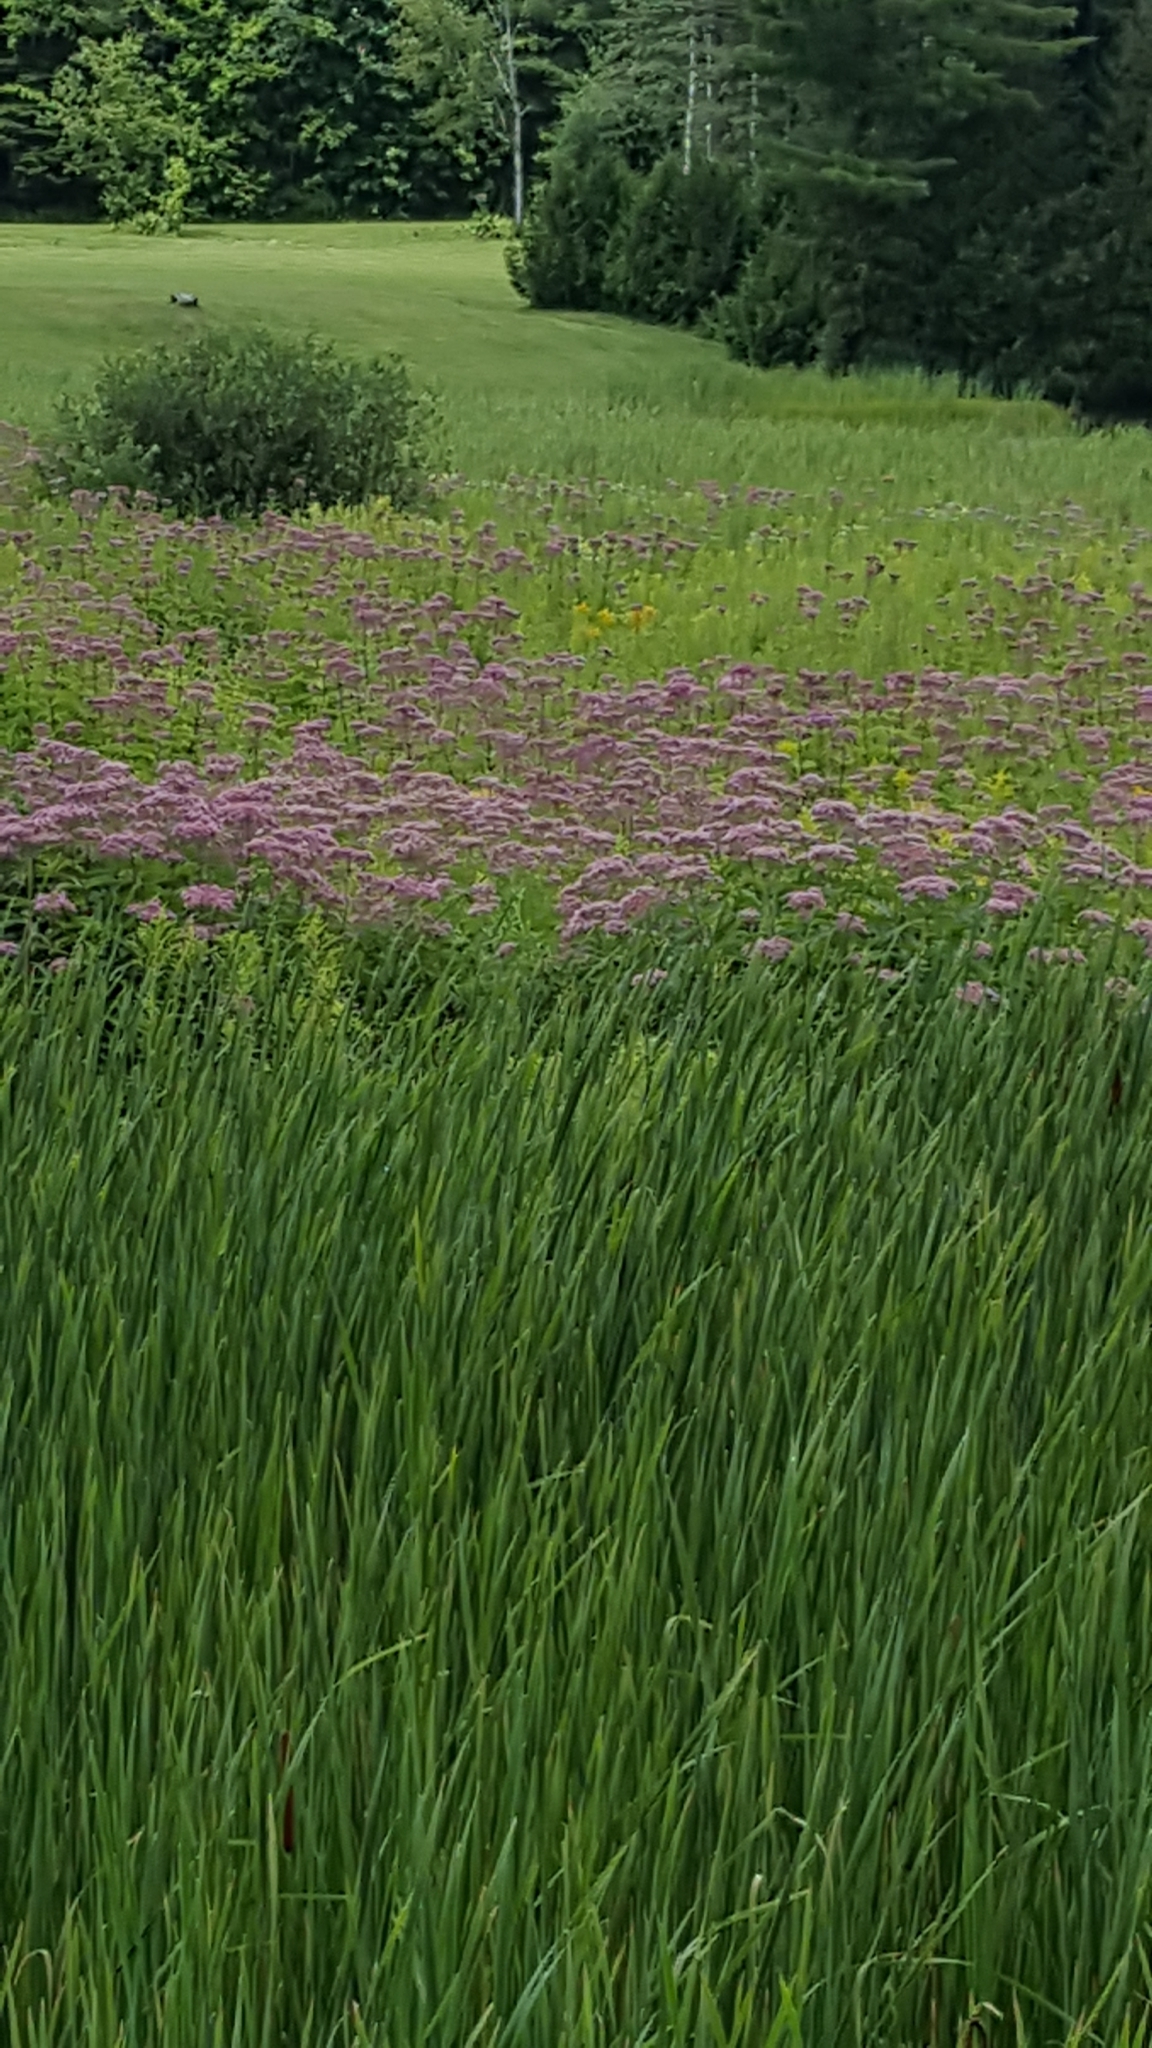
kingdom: Plantae
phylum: Tracheophyta
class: Magnoliopsida
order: Asterales
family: Asteraceae
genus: Eutrochium
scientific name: Eutrochium maculatum
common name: Spotted joe pye weed
